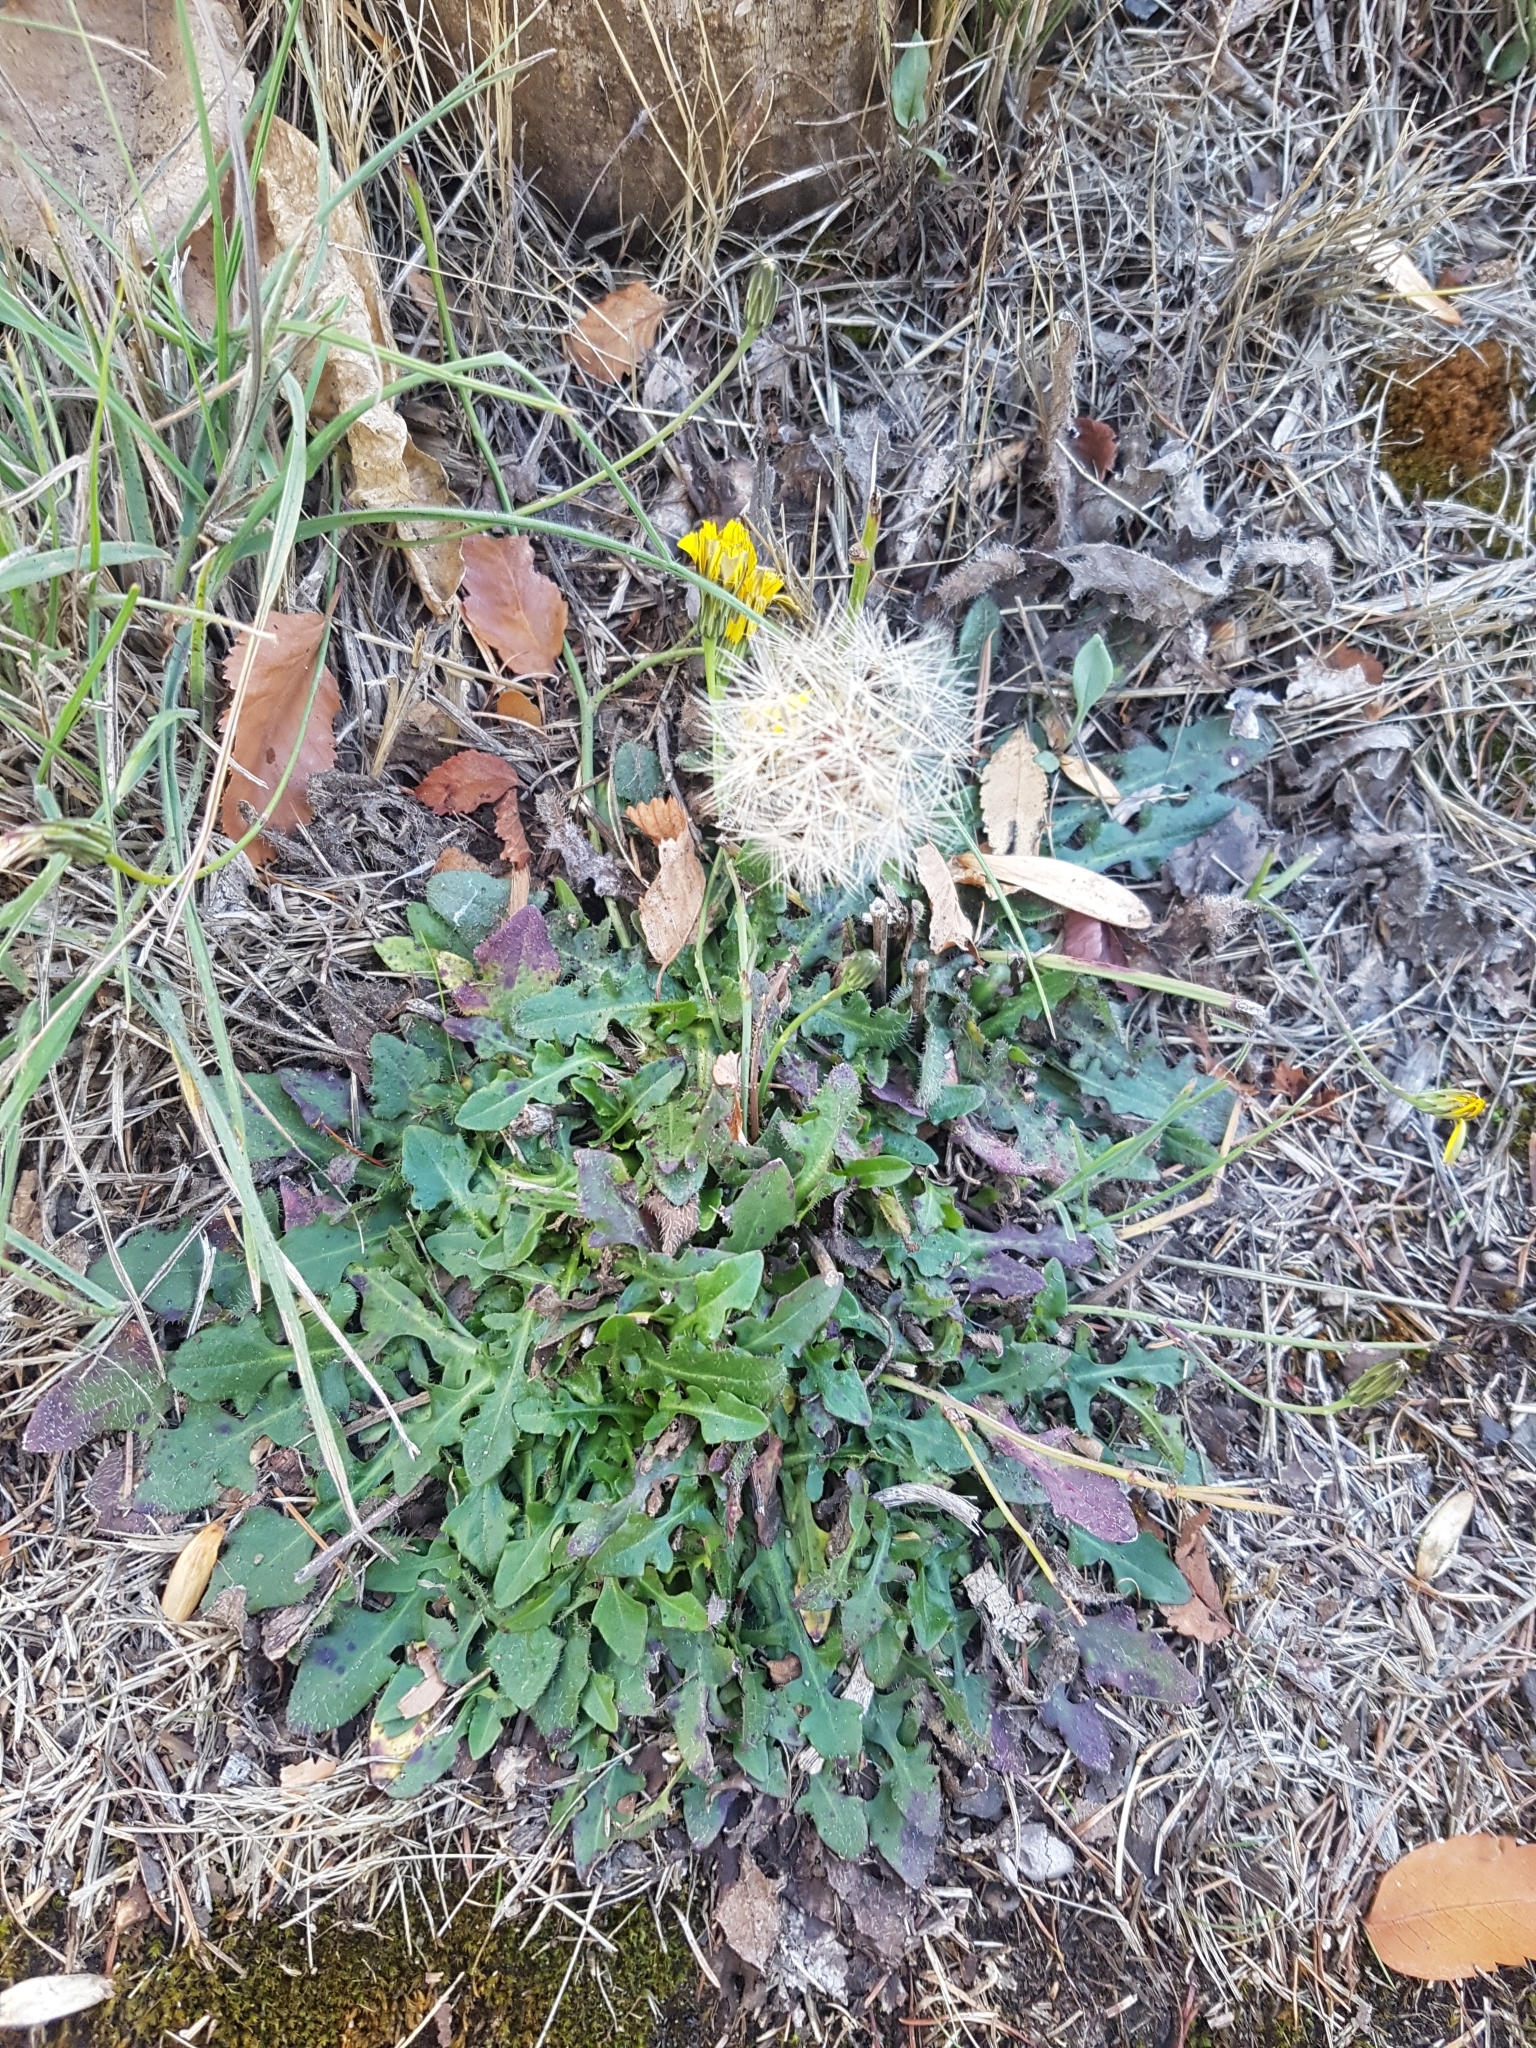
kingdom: Plantae
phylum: Tracheophyta
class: Magnoliopsida
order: Asterales
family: Asteraceae
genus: Hypochaeris
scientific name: Hypochaeris radicata
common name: Flatweed
